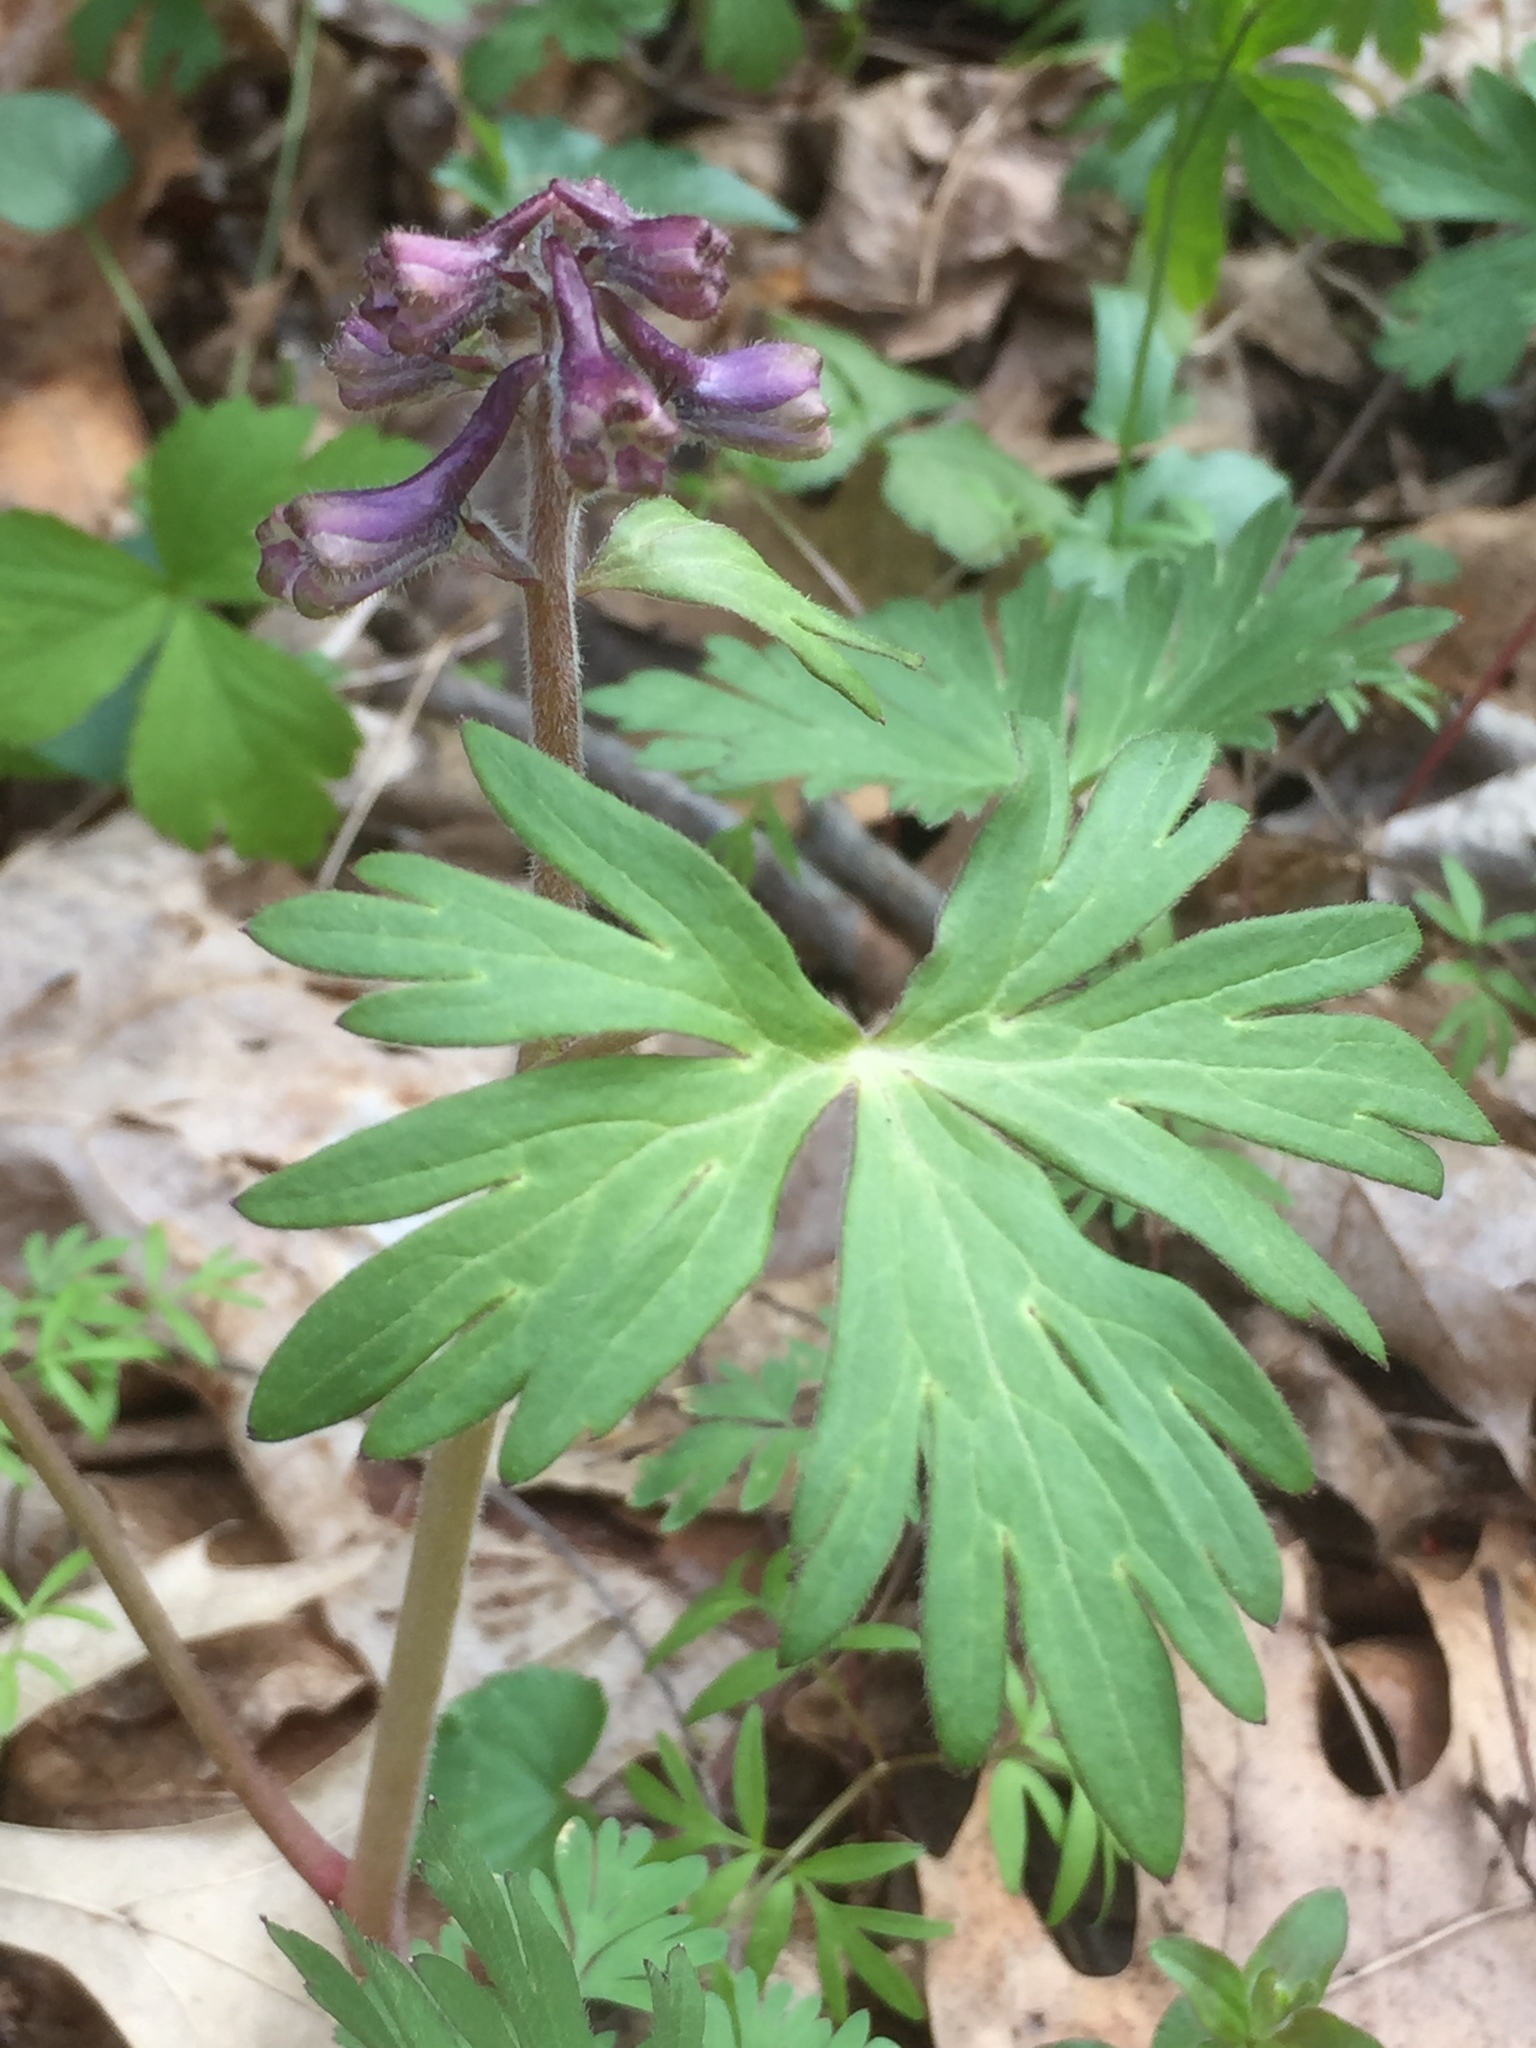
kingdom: Plantae
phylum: Tracheophyta
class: Magnoliopsida
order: Ranunculales
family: Ranunculaceae
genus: Delphinium
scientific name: Delphinium tricorne
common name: Dwarf larkspur
